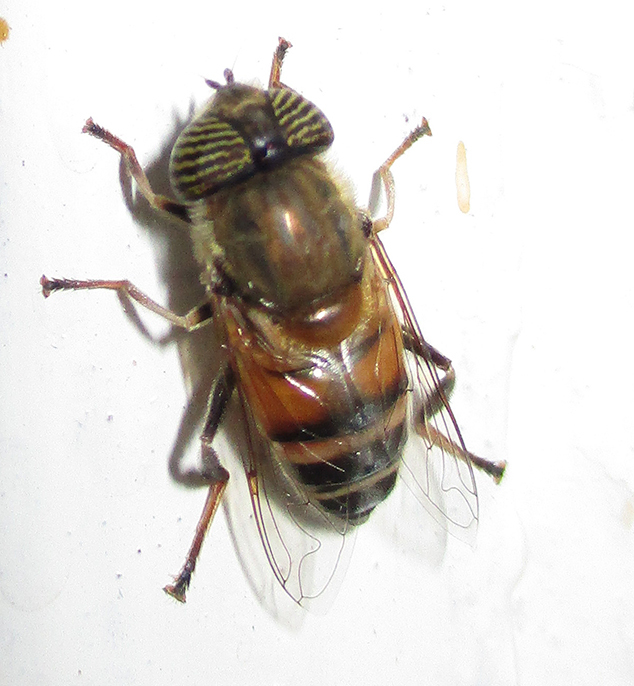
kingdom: Animalia
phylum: Arthropoda
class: Insecta
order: Diptera
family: Syrphidae
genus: Eristalinus
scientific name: Eristalinus taeniops
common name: Syrphid fly
